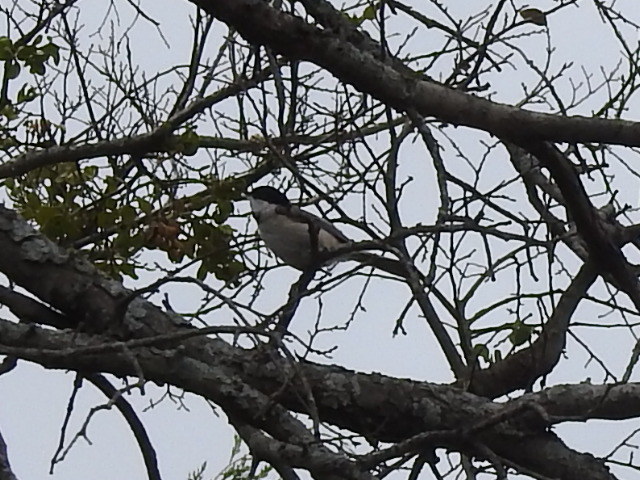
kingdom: Animalia
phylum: Chordata
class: Aves
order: Passeriformes
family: Paridae
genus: Poecile
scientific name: Poecile carolinensis
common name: Carolina chickadee
